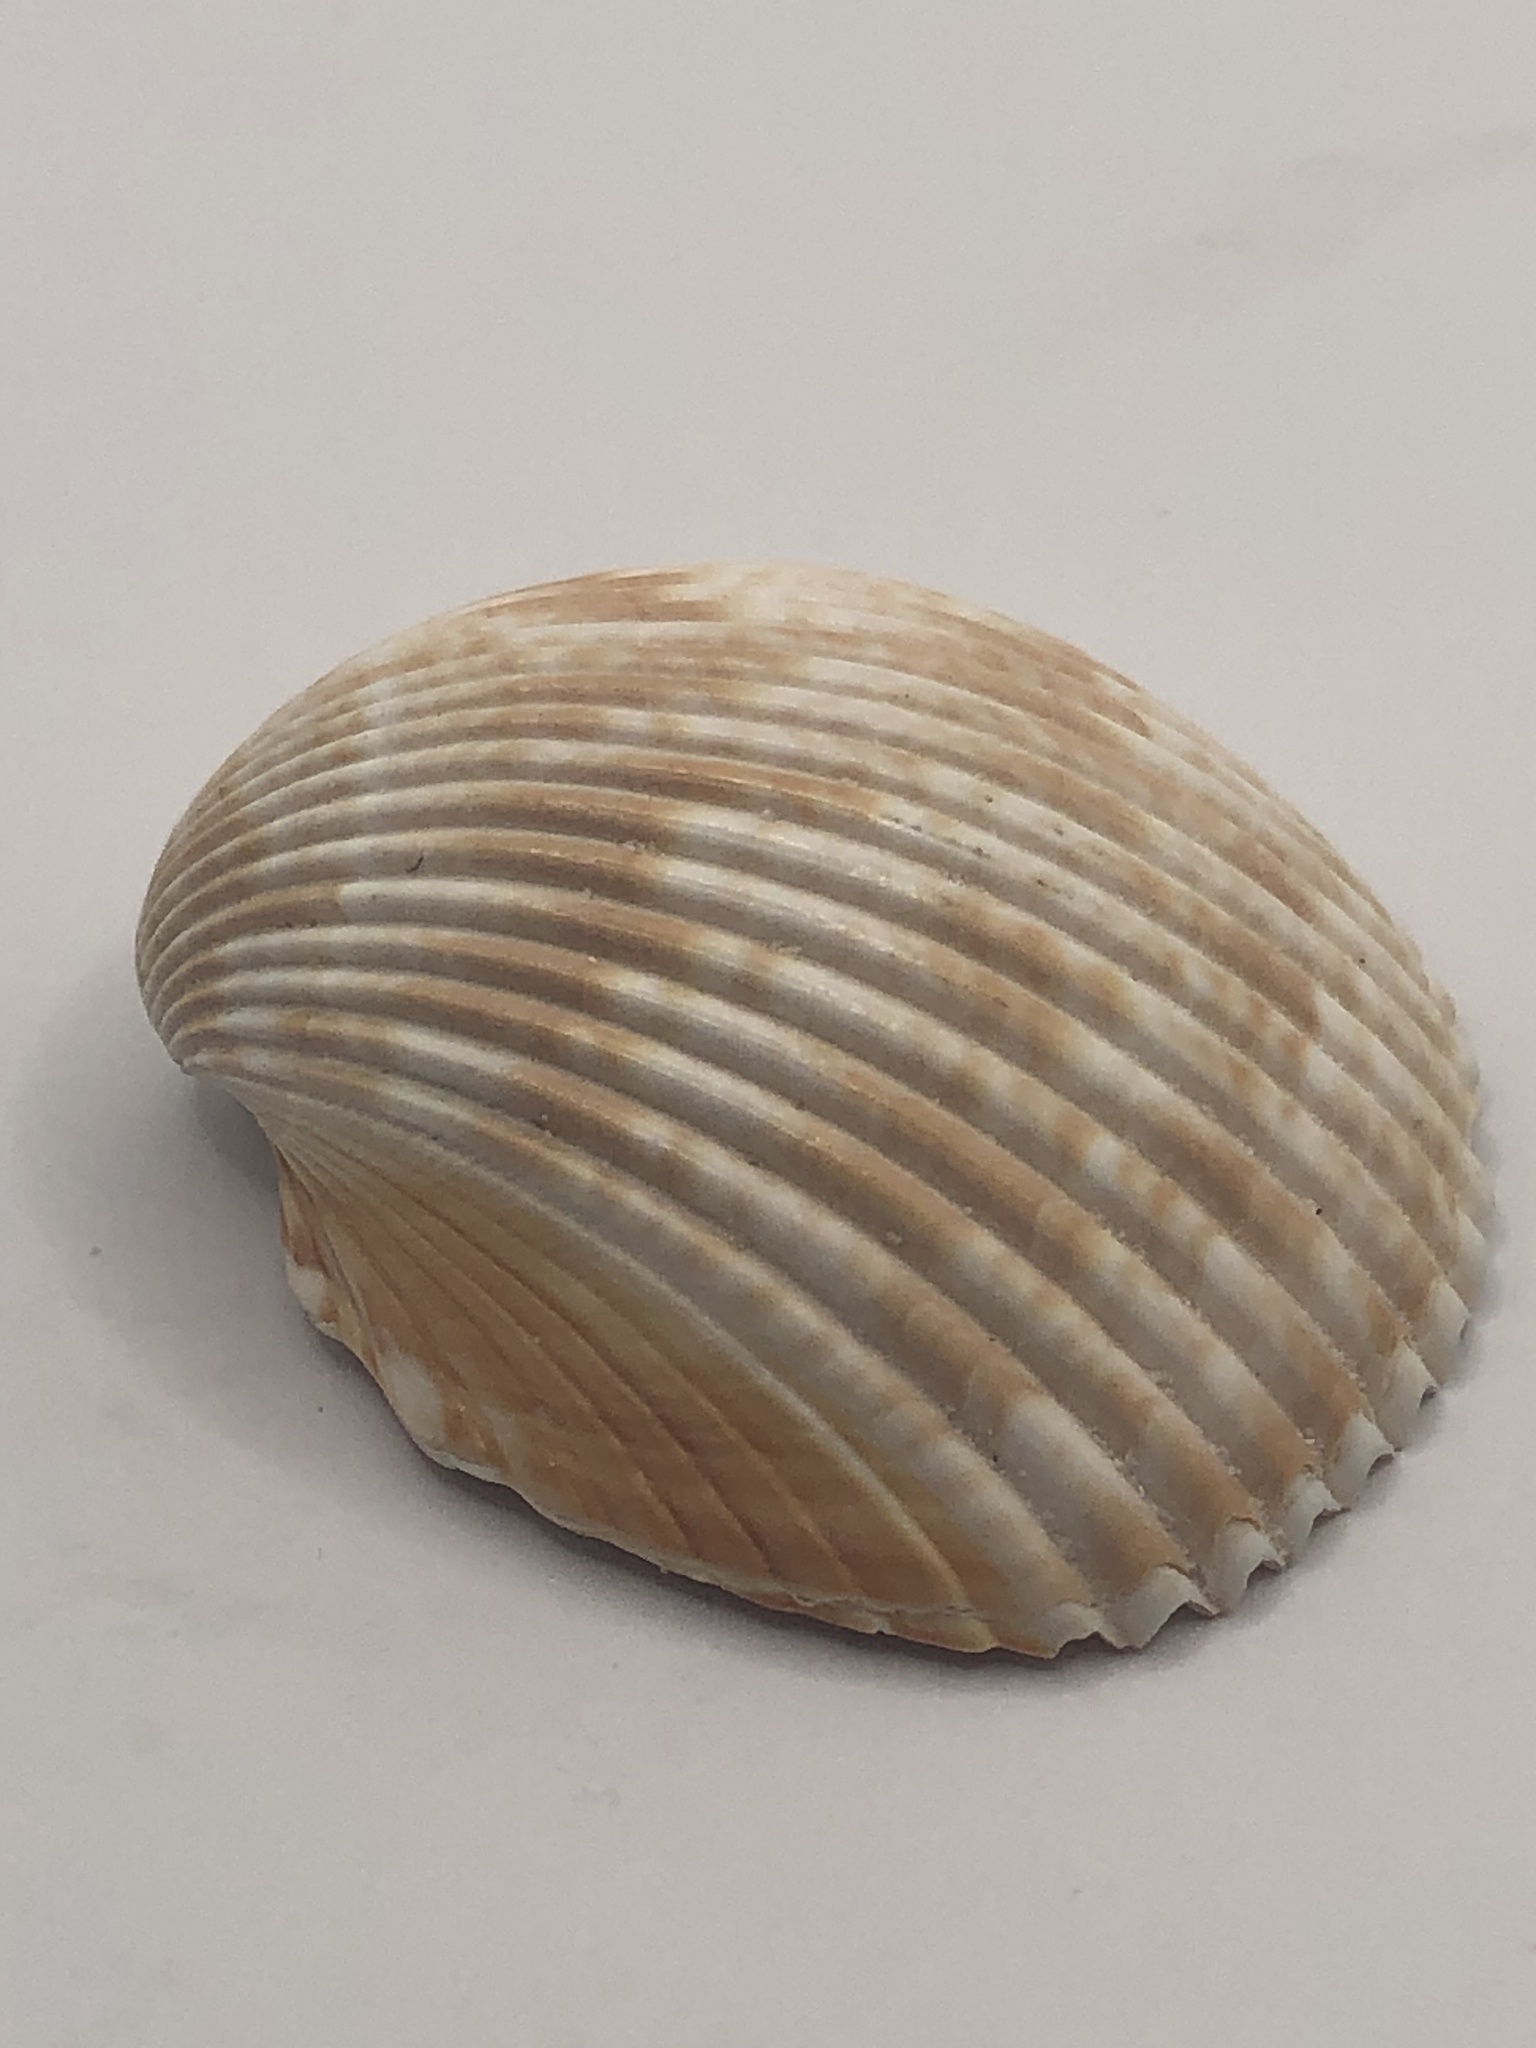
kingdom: Animalia
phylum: Mollusca
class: Bivalvia
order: Cardiida
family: Cardiidae
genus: Dinocardium
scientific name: Dinocardium robustum
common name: Atlantic giant cockle
